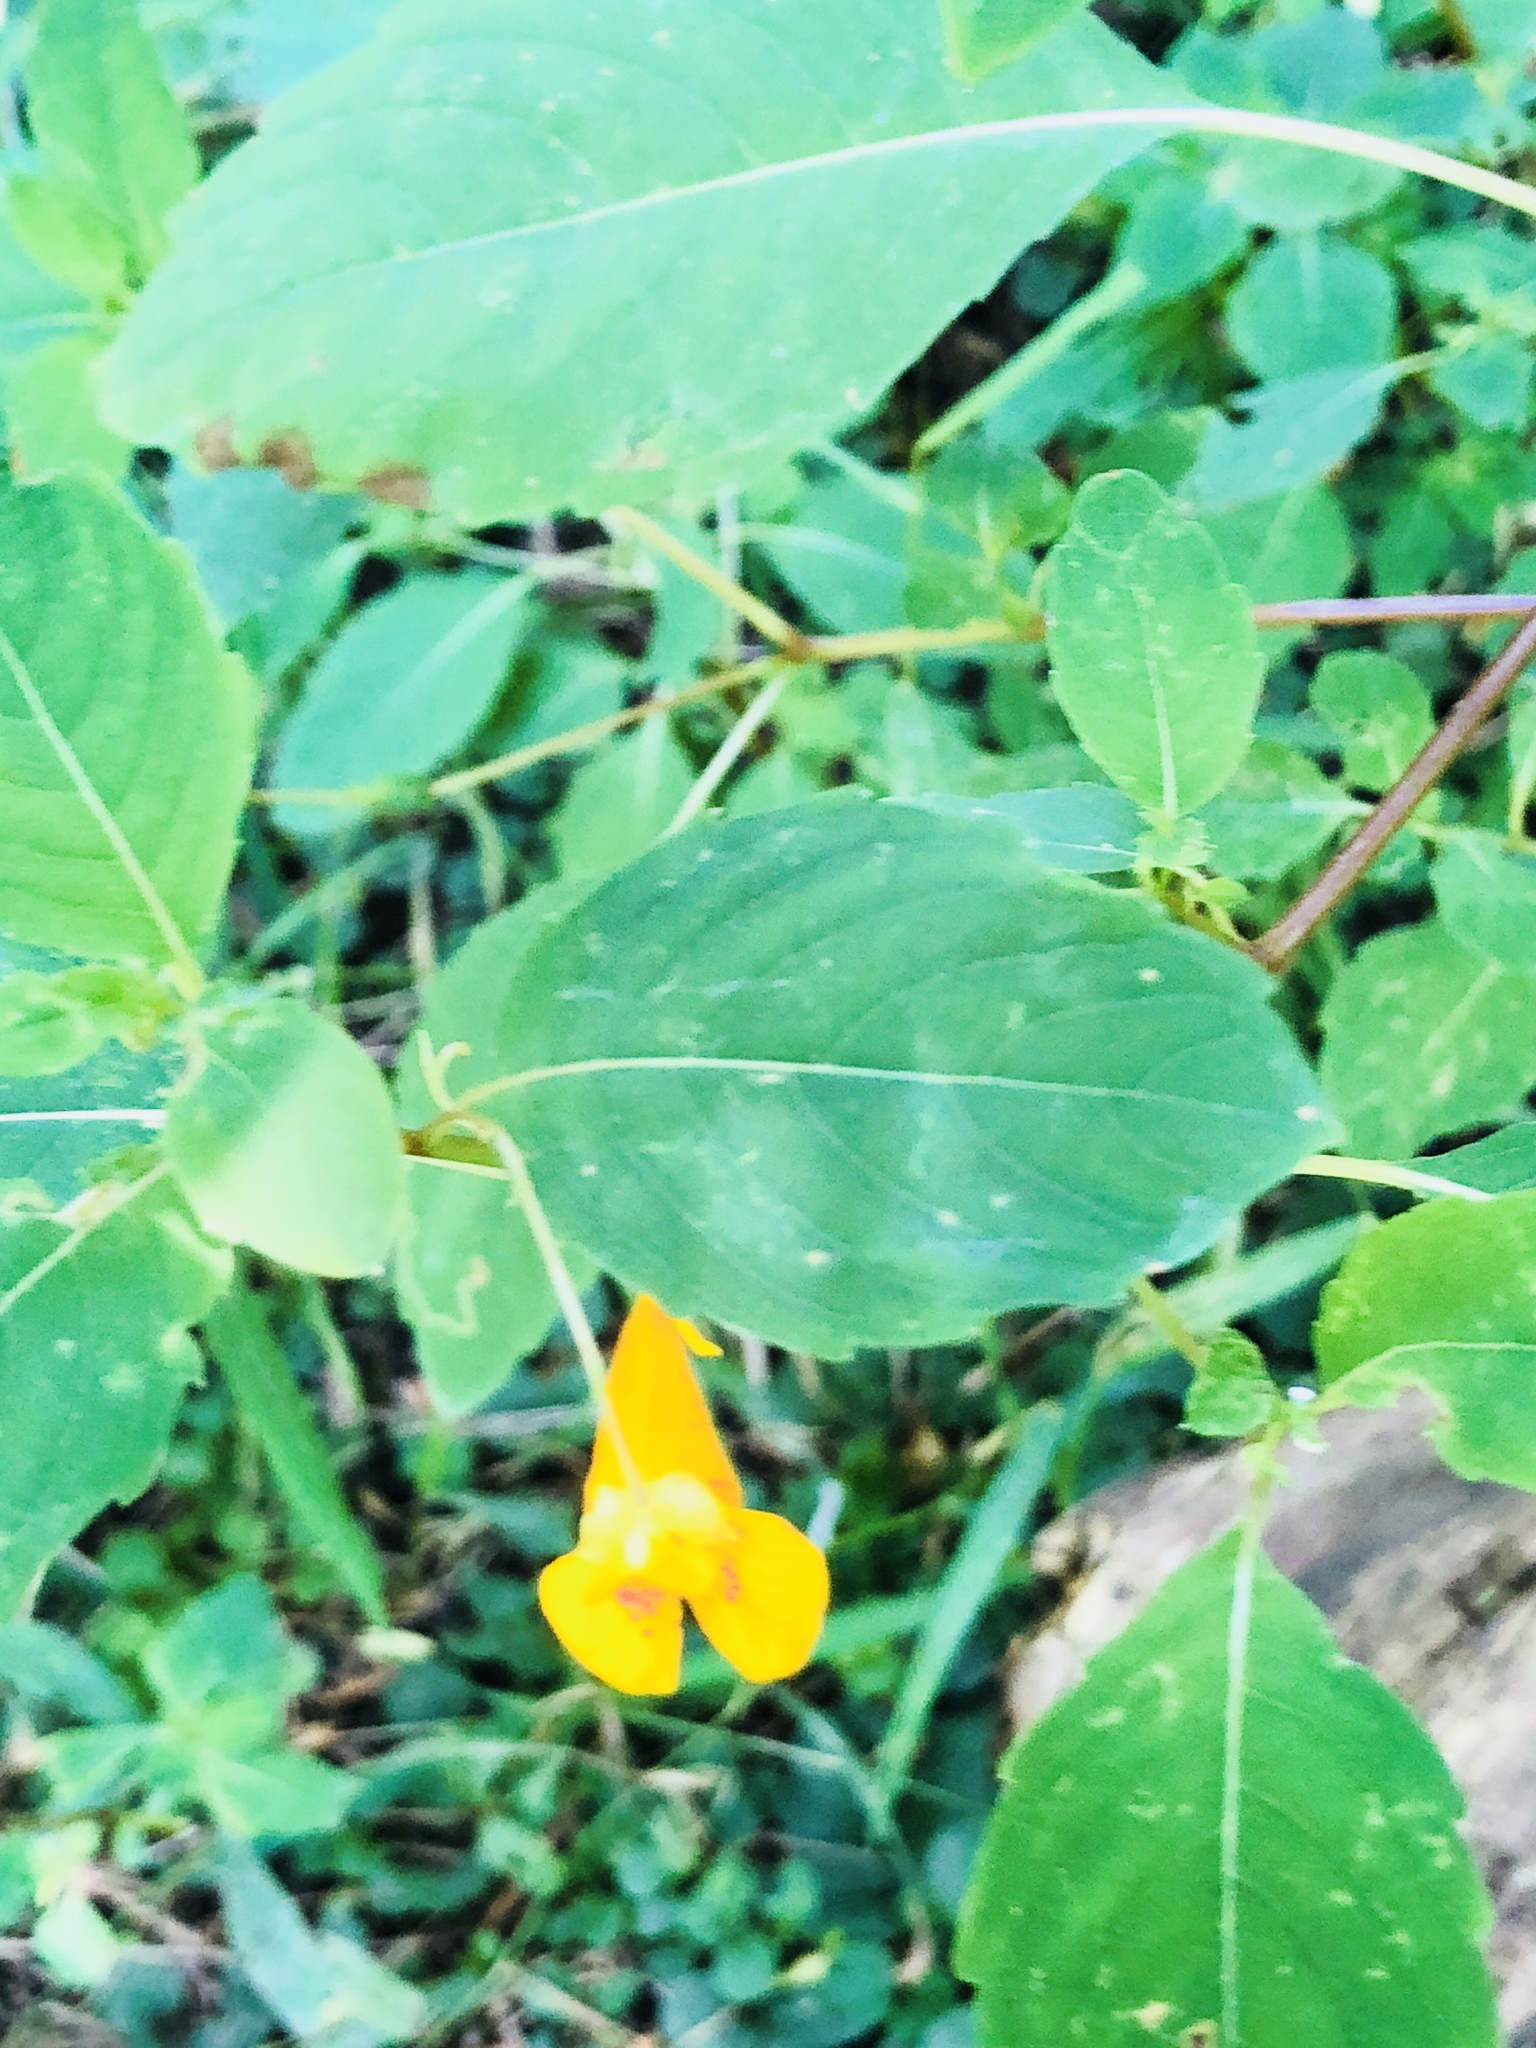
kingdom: Plantae
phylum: Tracheophyta
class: Magnoliopsida
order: Ericales
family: Balsaminaceae
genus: Impatiens
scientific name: Impatiens capensis
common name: Orange balsam
